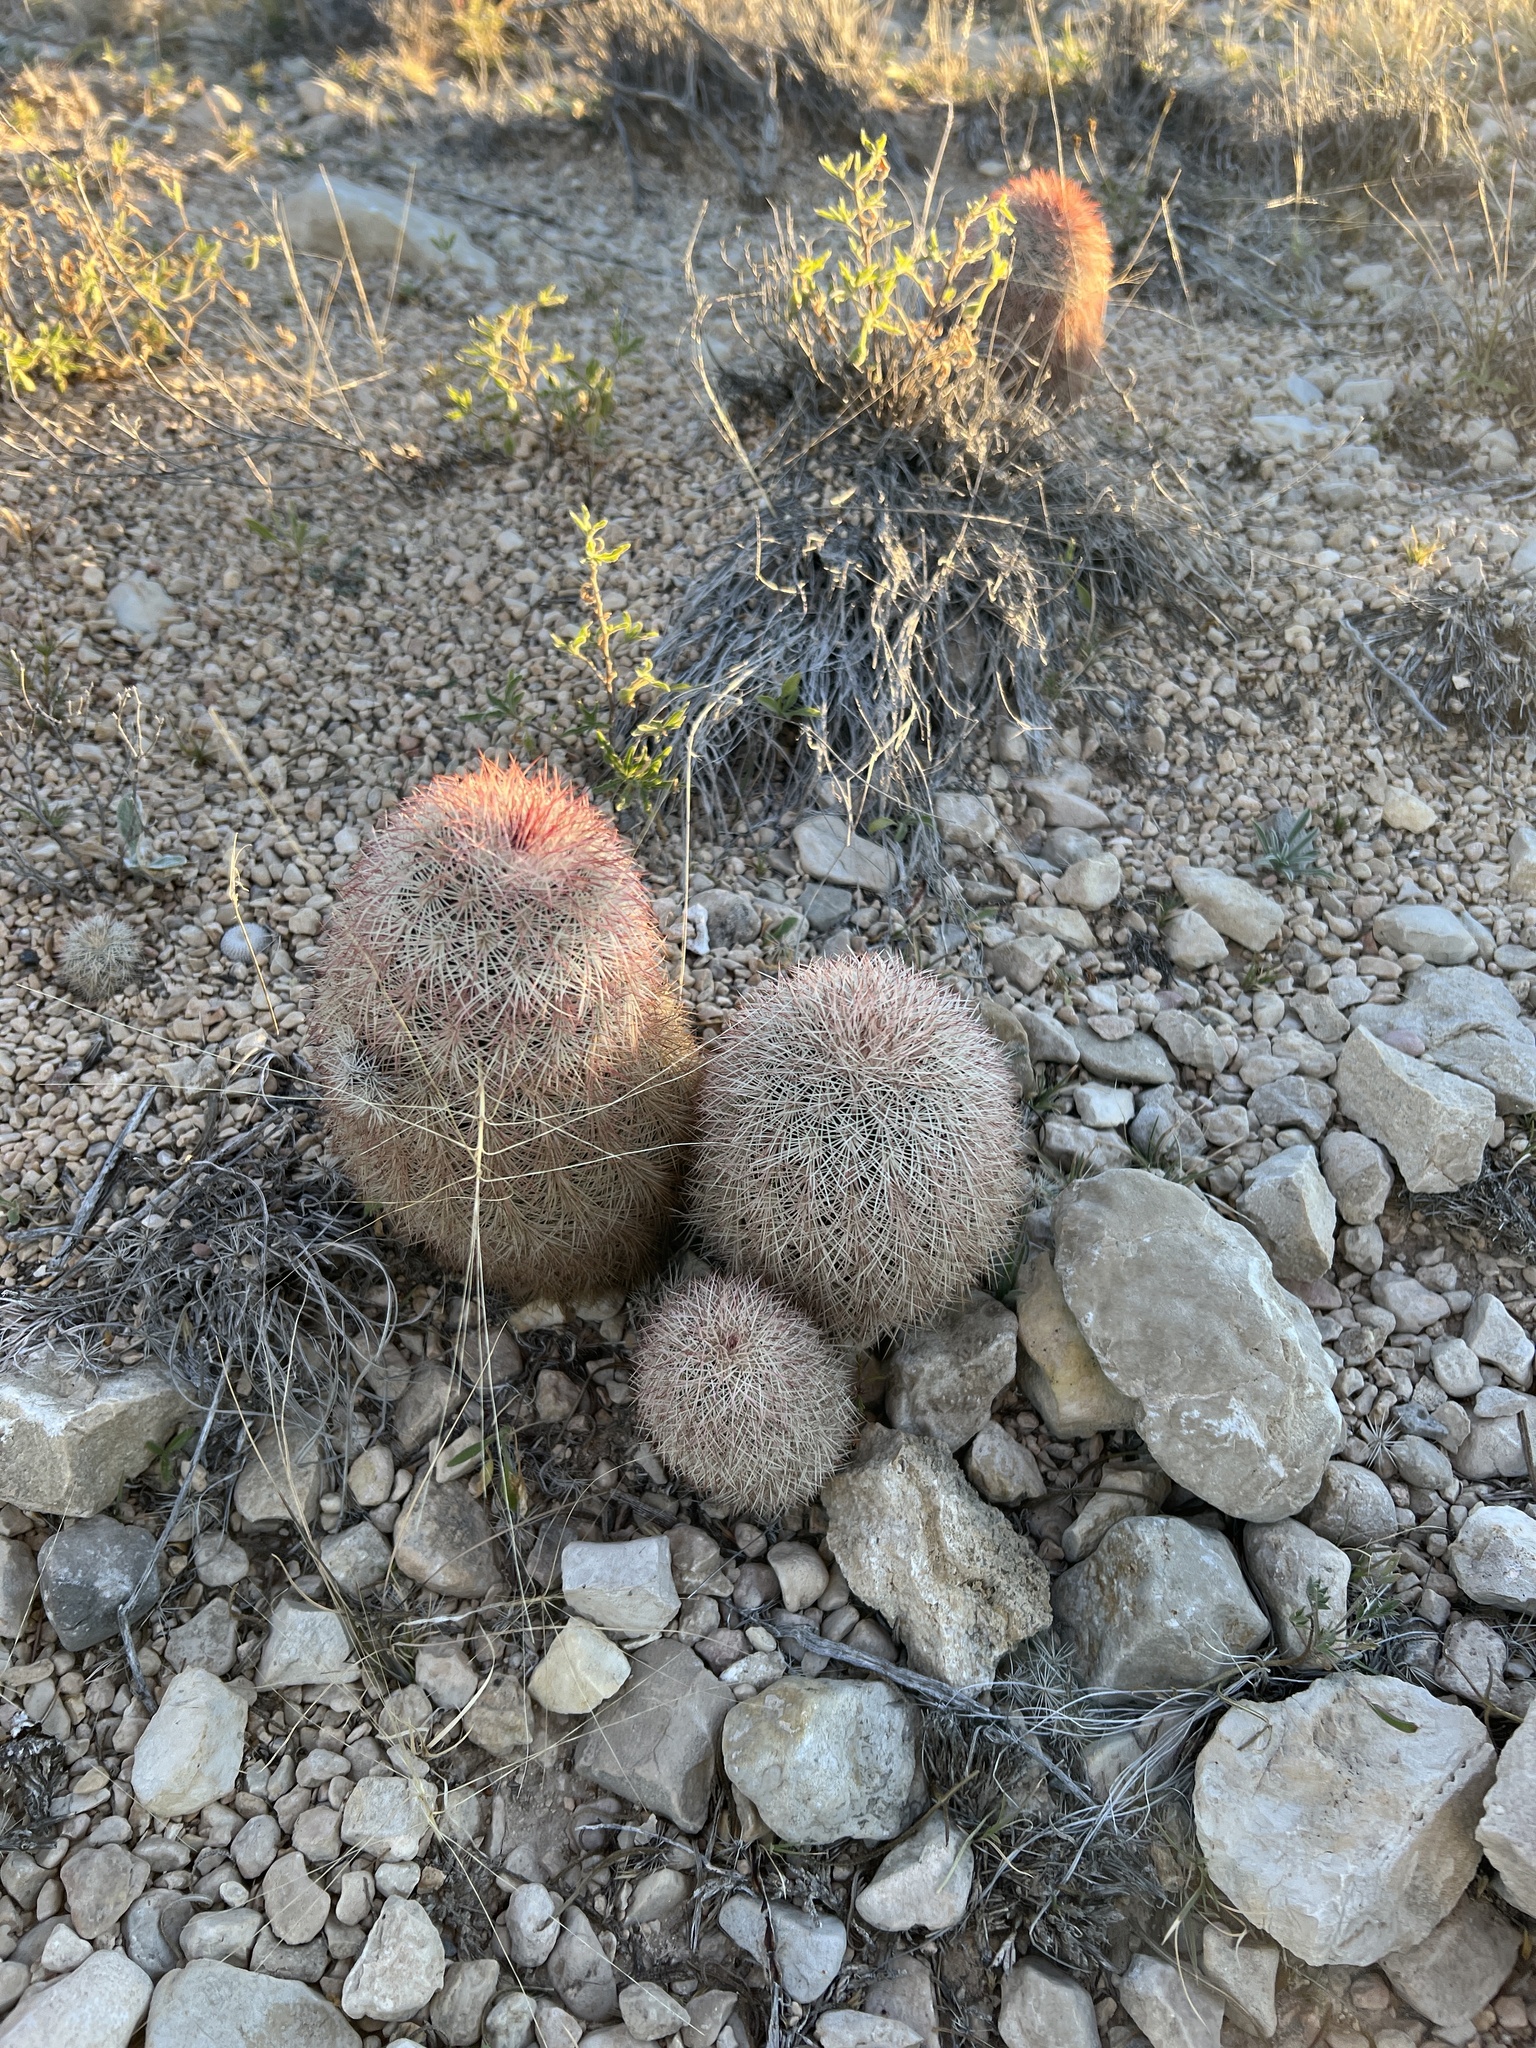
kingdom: Plantae
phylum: Tracheophyta
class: Magnoliopsida
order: Caryophyllales
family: Cactaceae
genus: Echinocereus
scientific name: Echinocereus dasyacanthus
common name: Spiny hedgehog cactus
